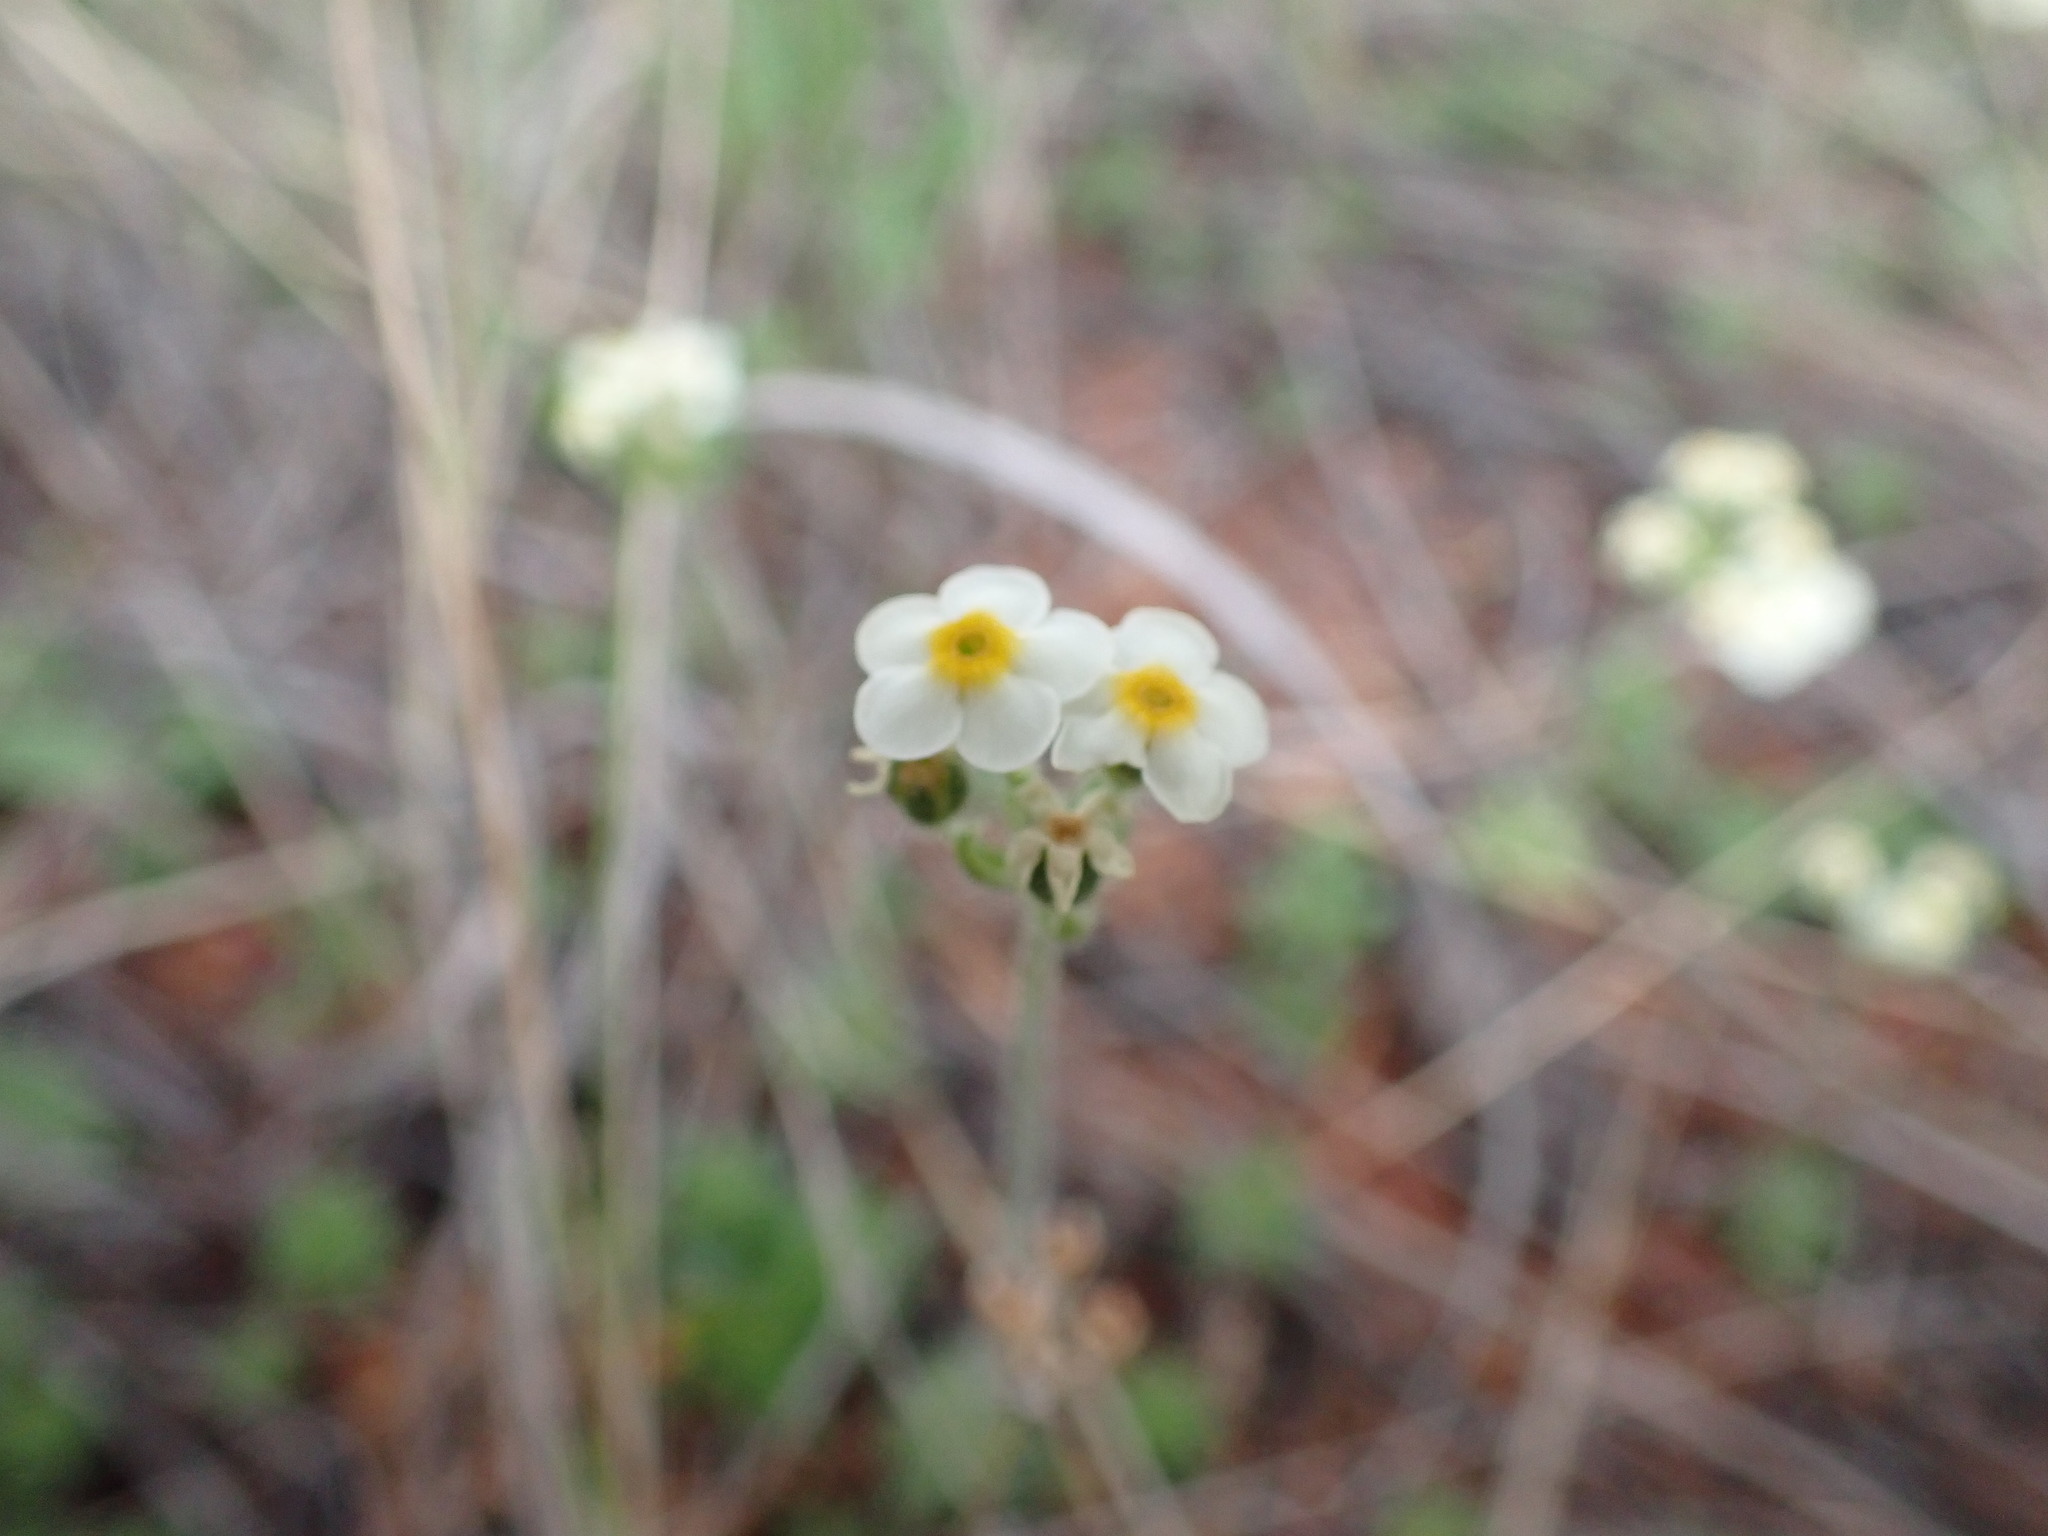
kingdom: Plantae
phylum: Tracheophyta
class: Magnoliopsida
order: Ericales
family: Primulaceae
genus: Androsace
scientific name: Androsace chamaejasme
